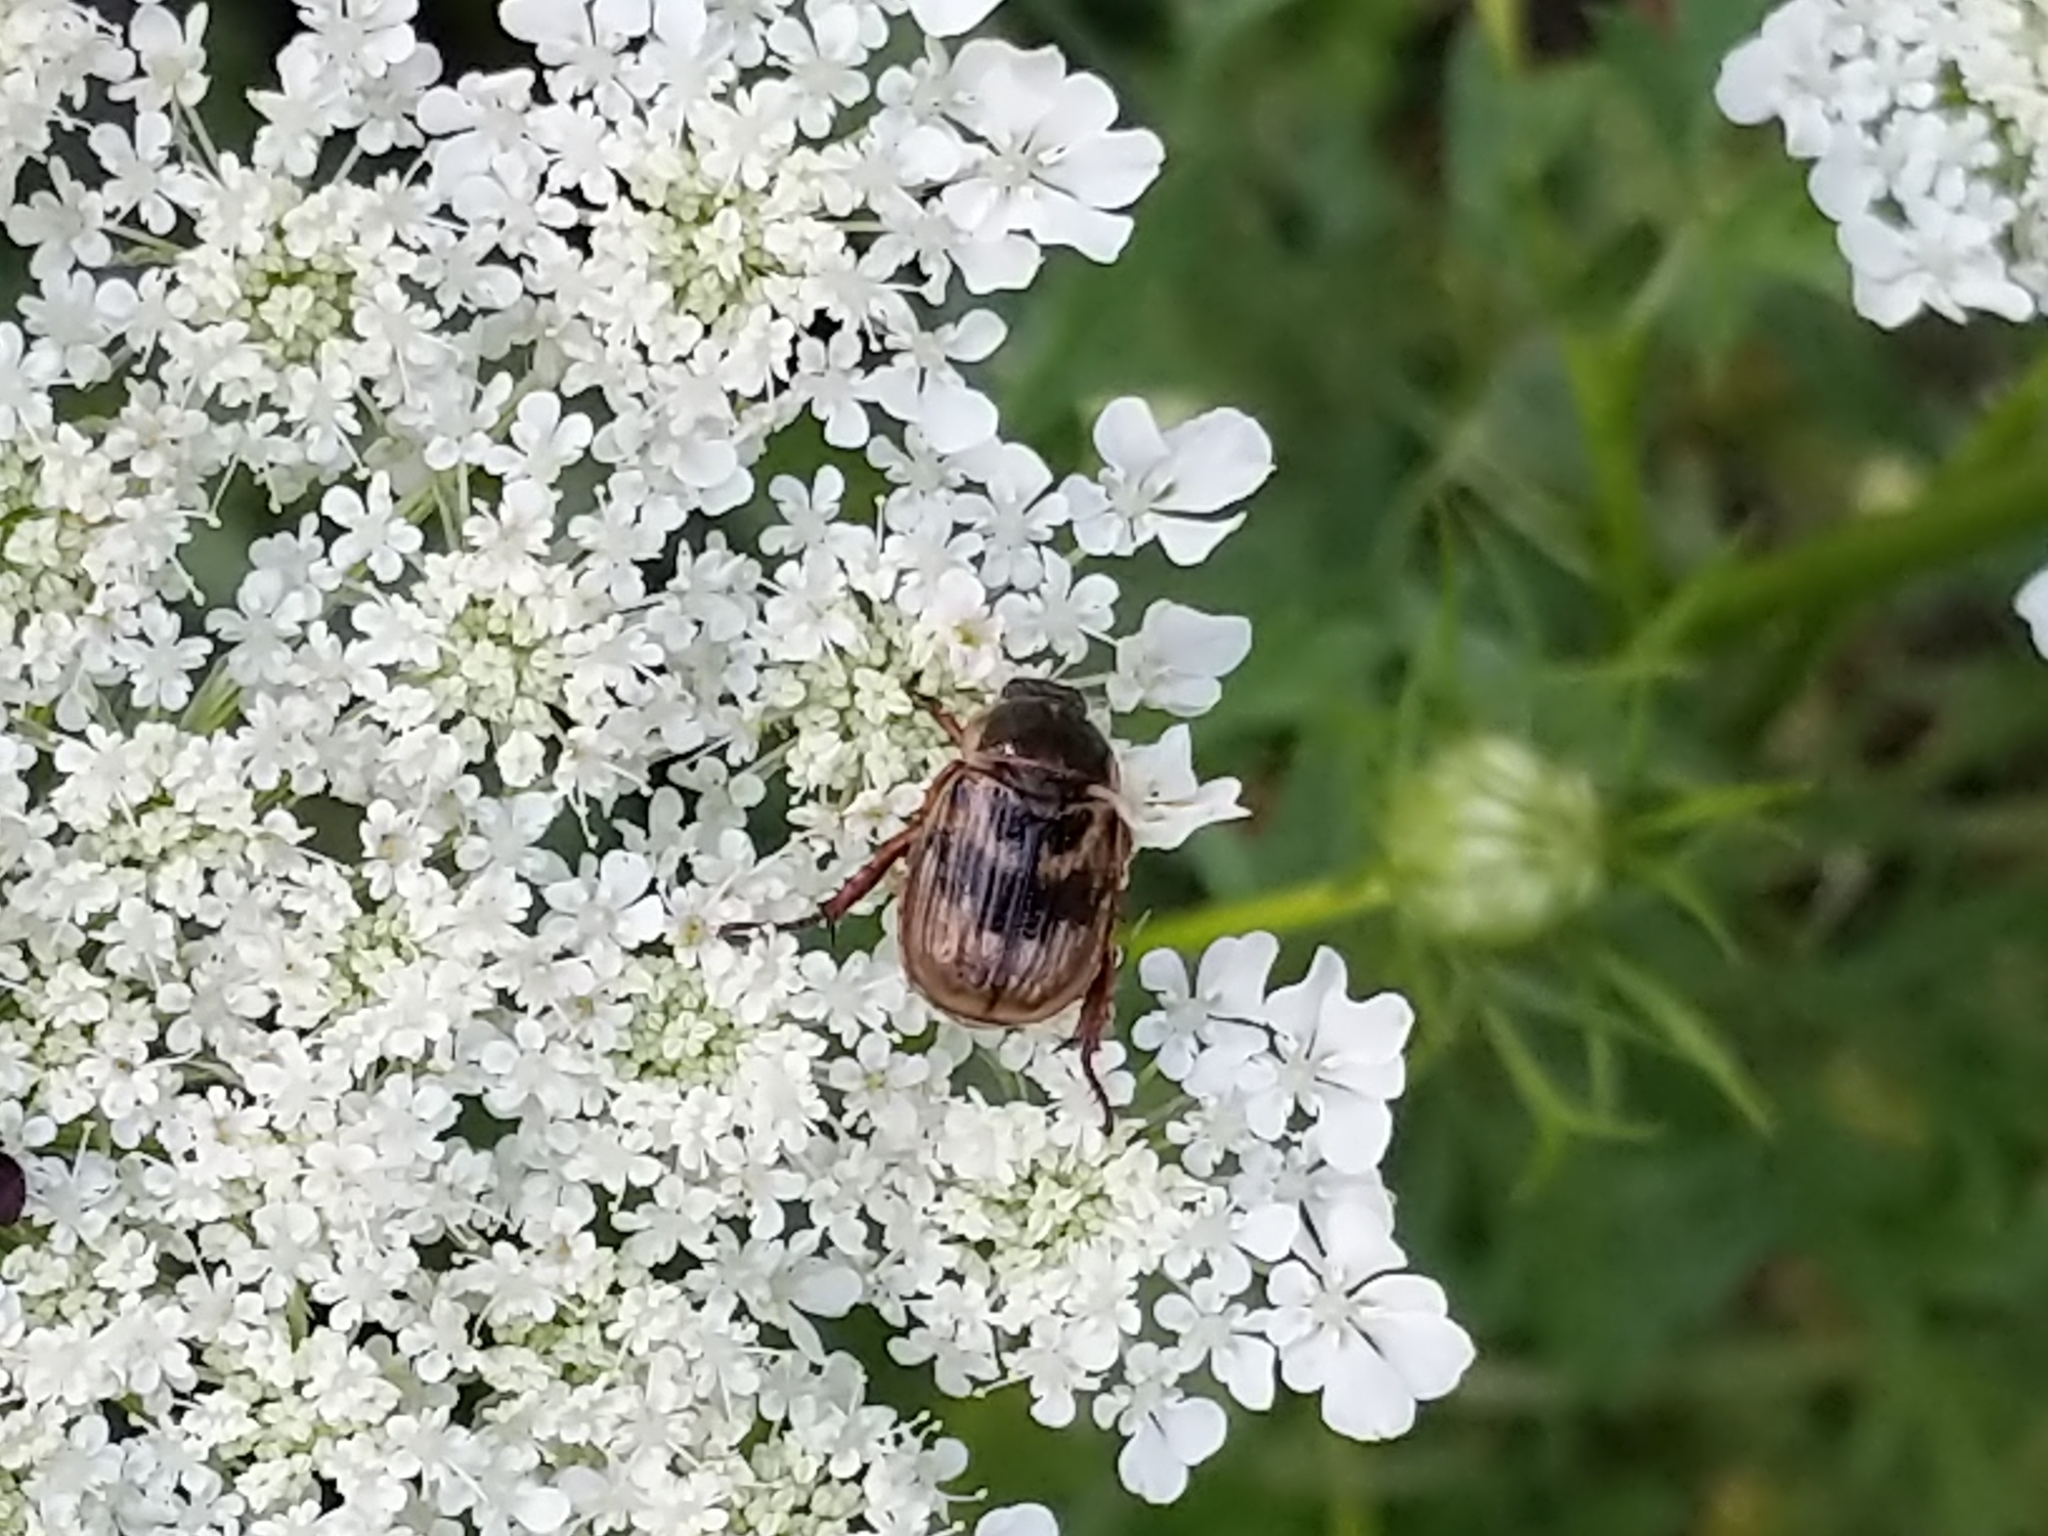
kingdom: Animalia
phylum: Arthropoda
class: Insecta
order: Coleoptera
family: Scarabaeidae
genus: Exomala
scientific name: Exomala orientalis
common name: Oriental beetle
